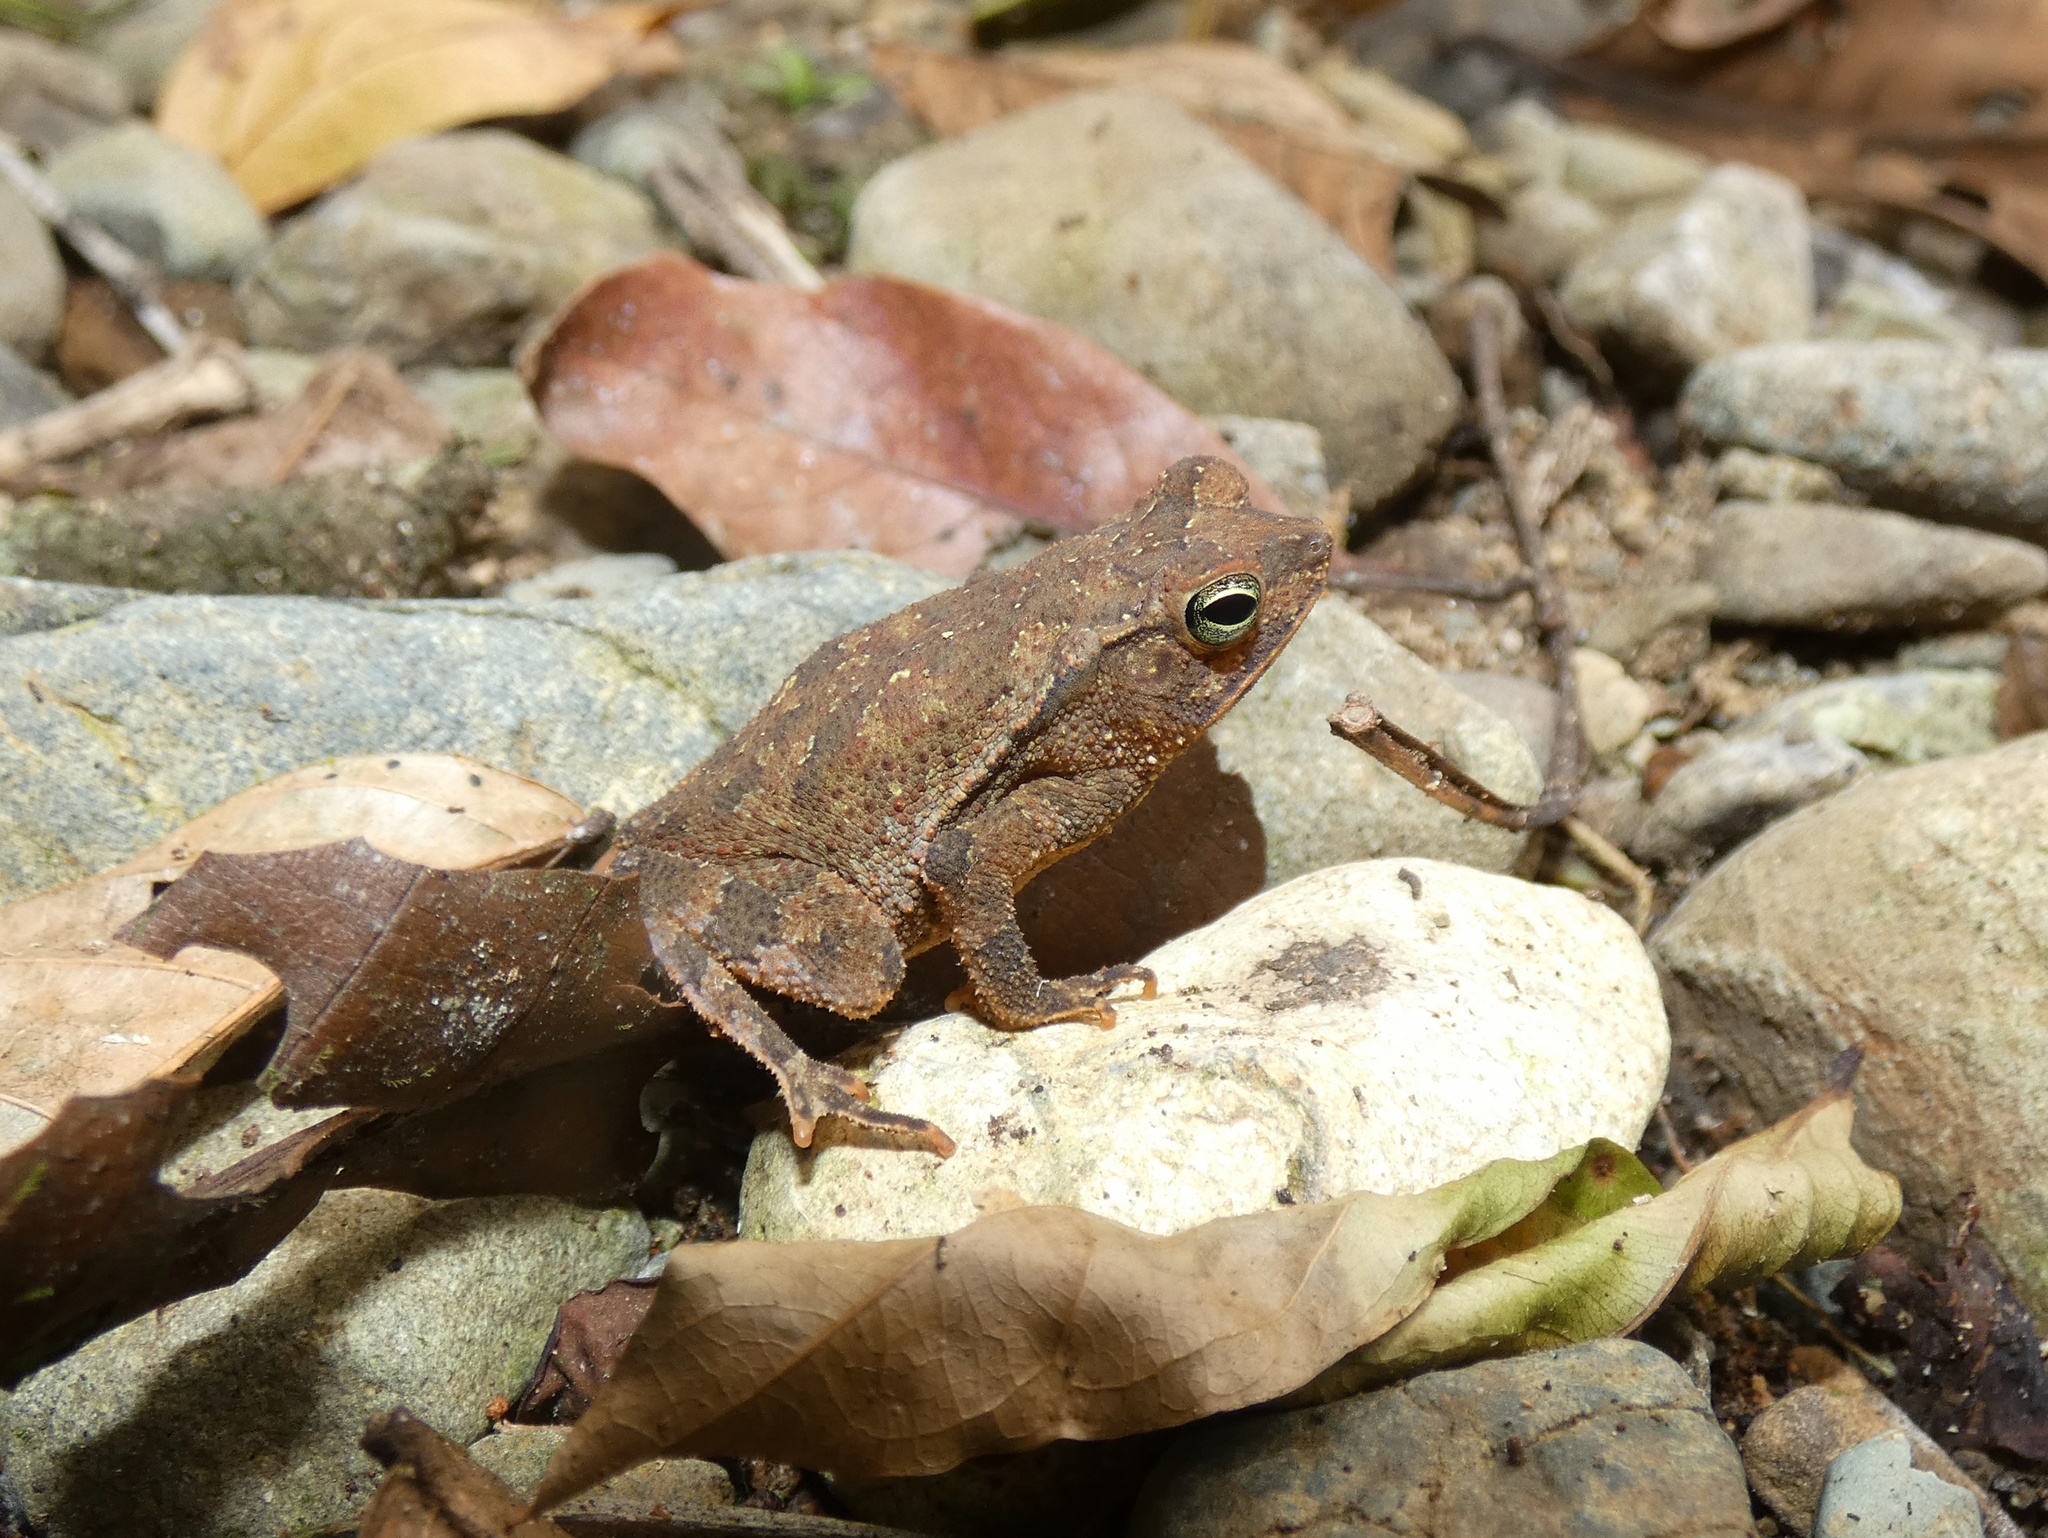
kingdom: Animalia
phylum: Chordata
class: Amphibia
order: Anura
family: Bufonidae
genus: Rhinella
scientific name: Rhinella alata
